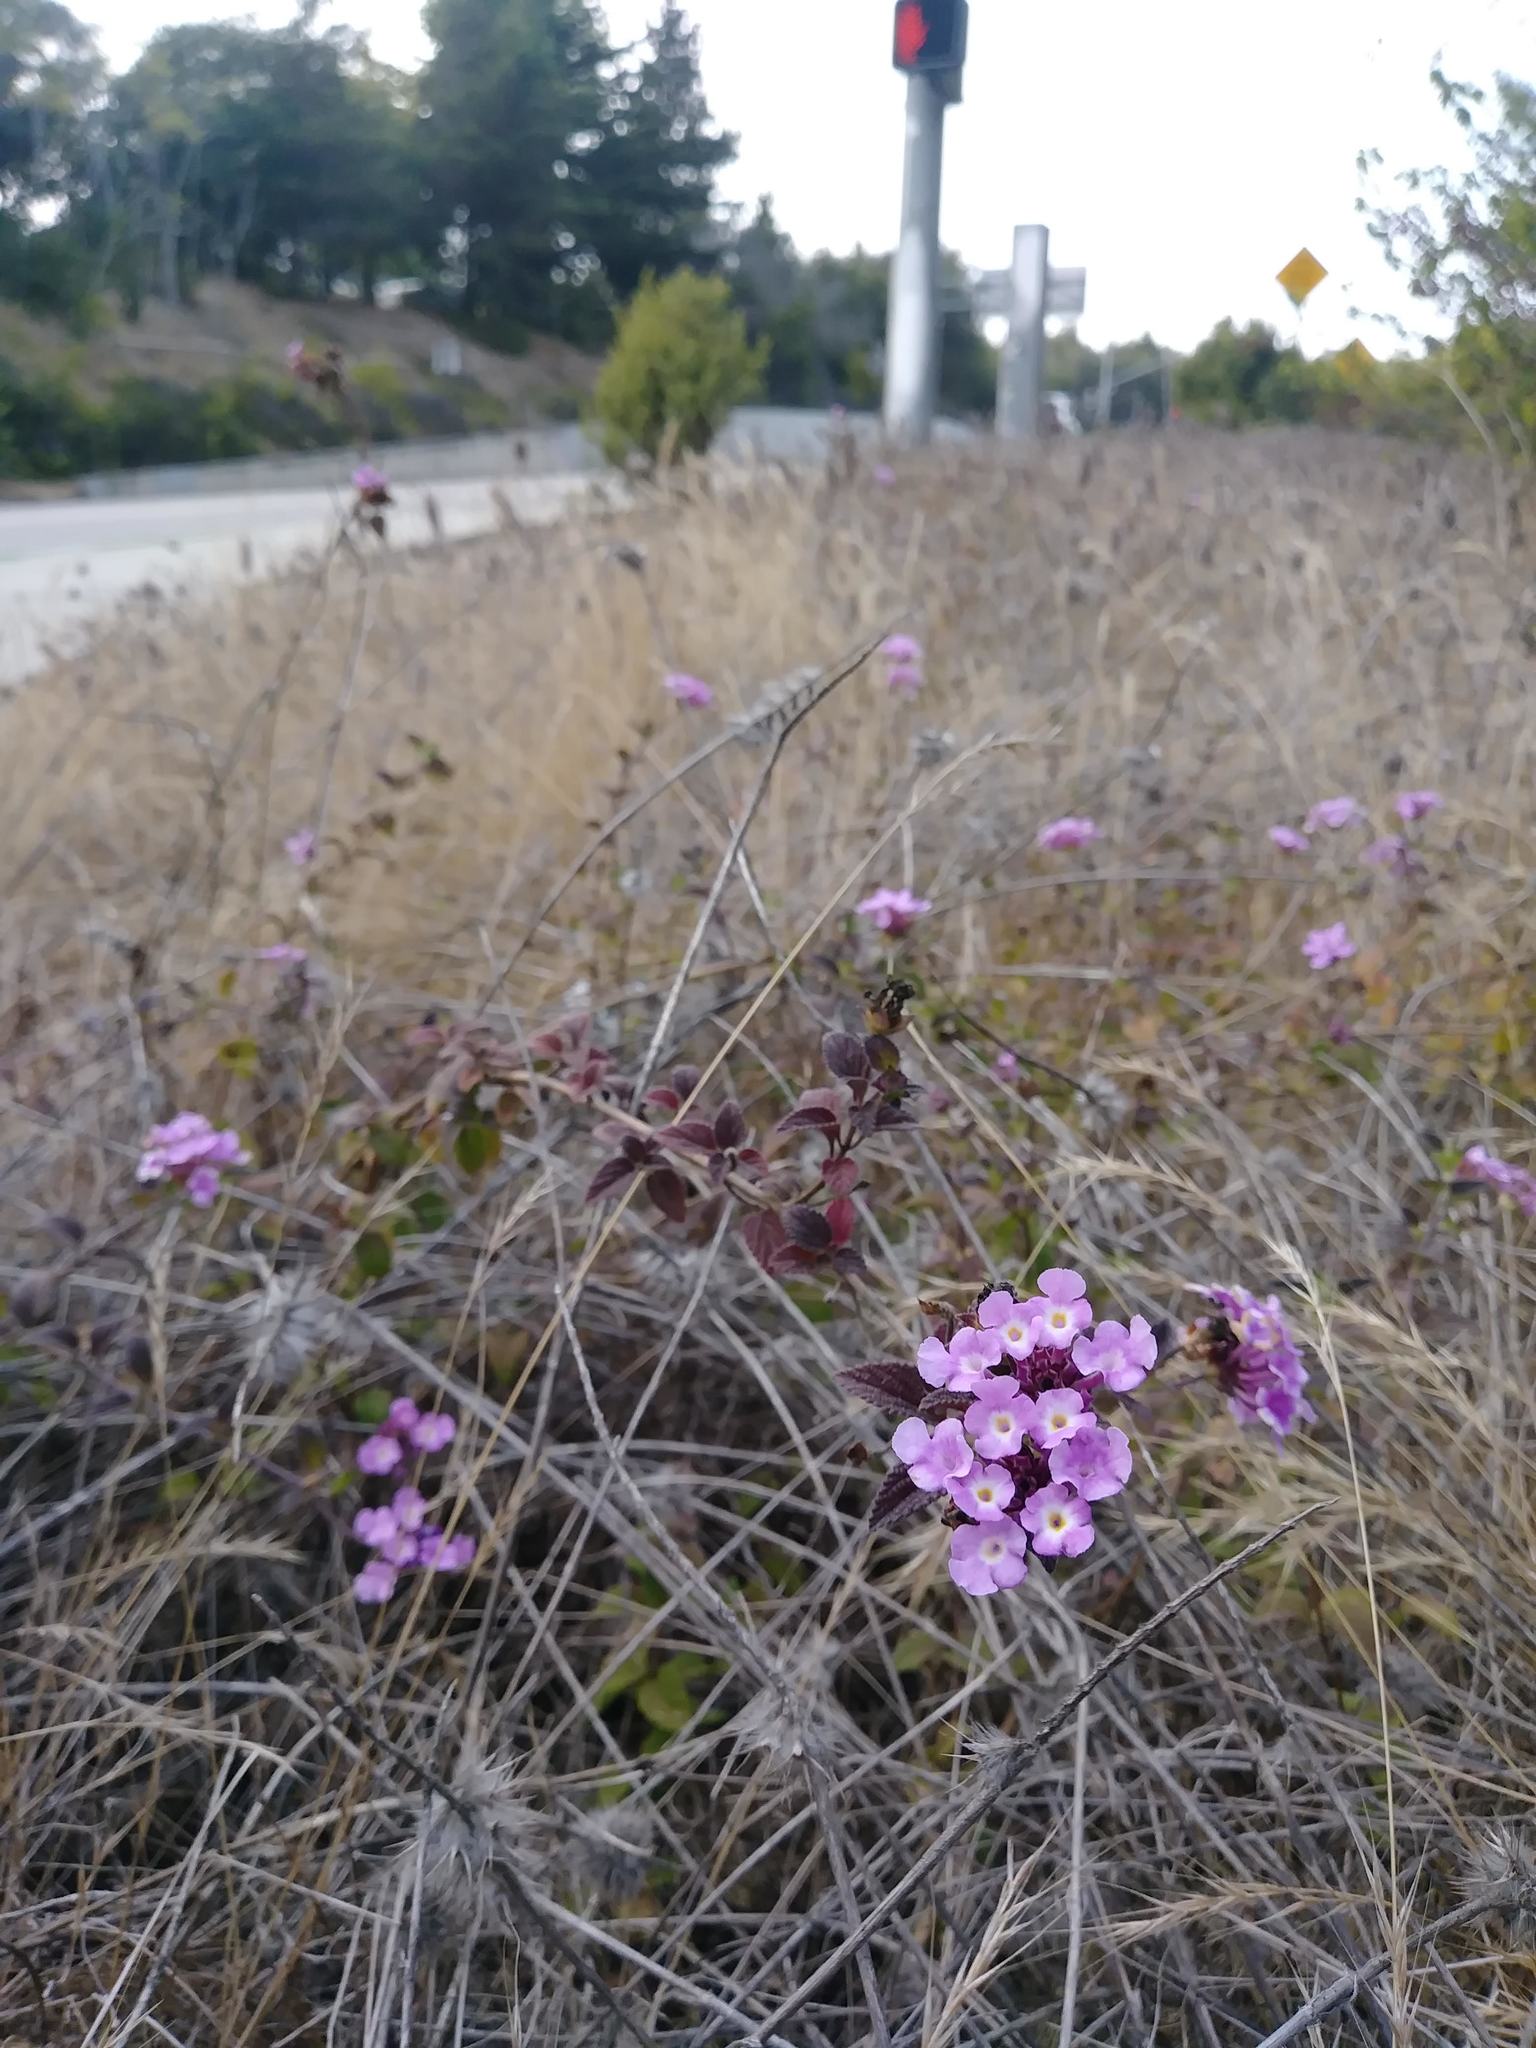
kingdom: Plantae
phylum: Tracheophyta
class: Magnoliopsida
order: Lamiales
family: Verbenaceae
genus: Lantana
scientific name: Lantana montevidensis
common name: Trailing shrubverbena
